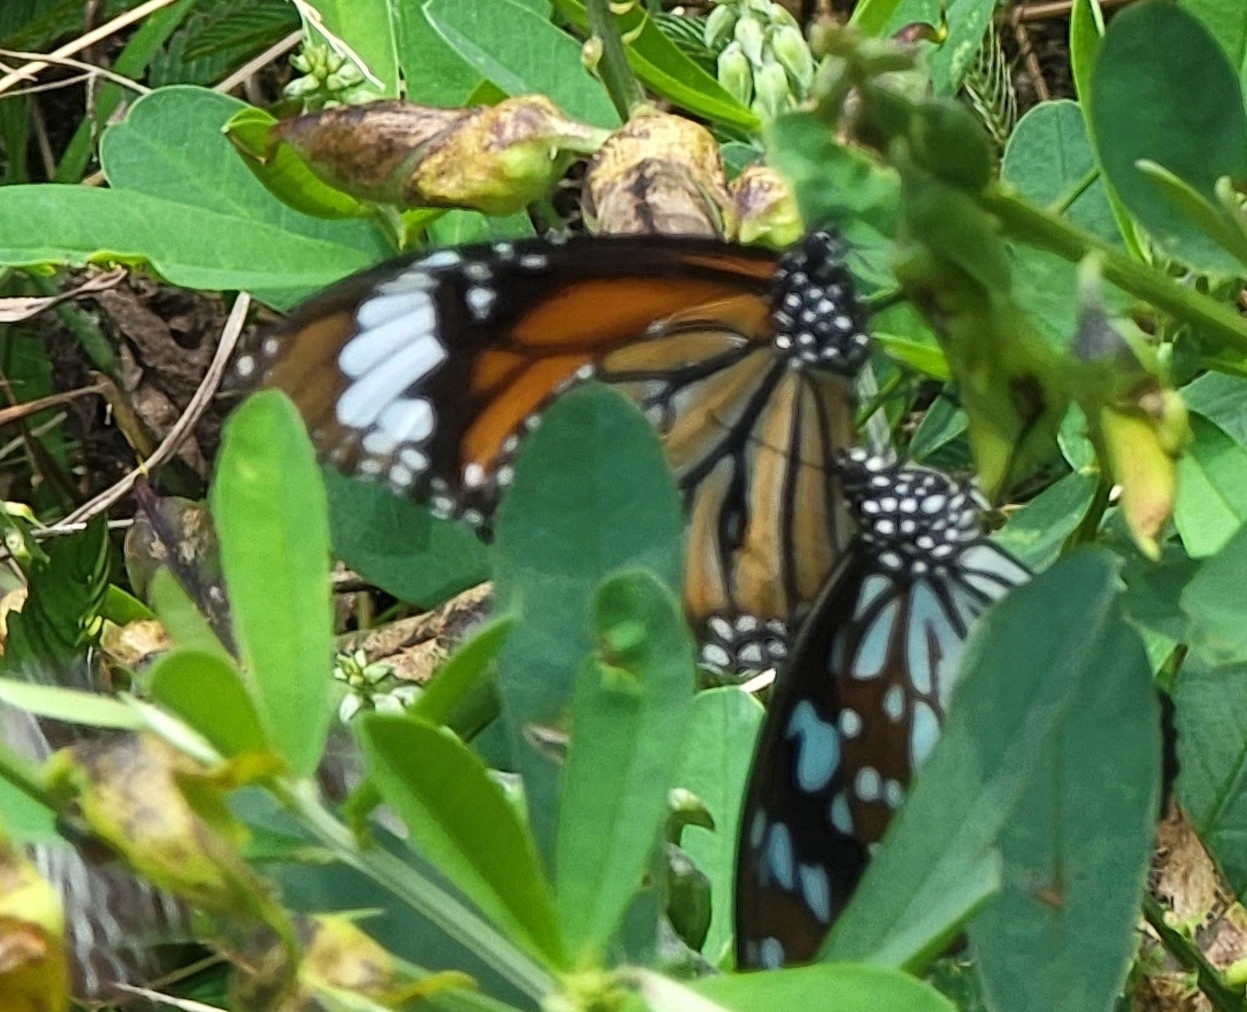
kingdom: Animalia
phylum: Arthropoda
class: Insecta
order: Lepidoptera
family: Nymphalidae
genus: Danaus
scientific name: Danaus genutia
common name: Common tiger butterfly
